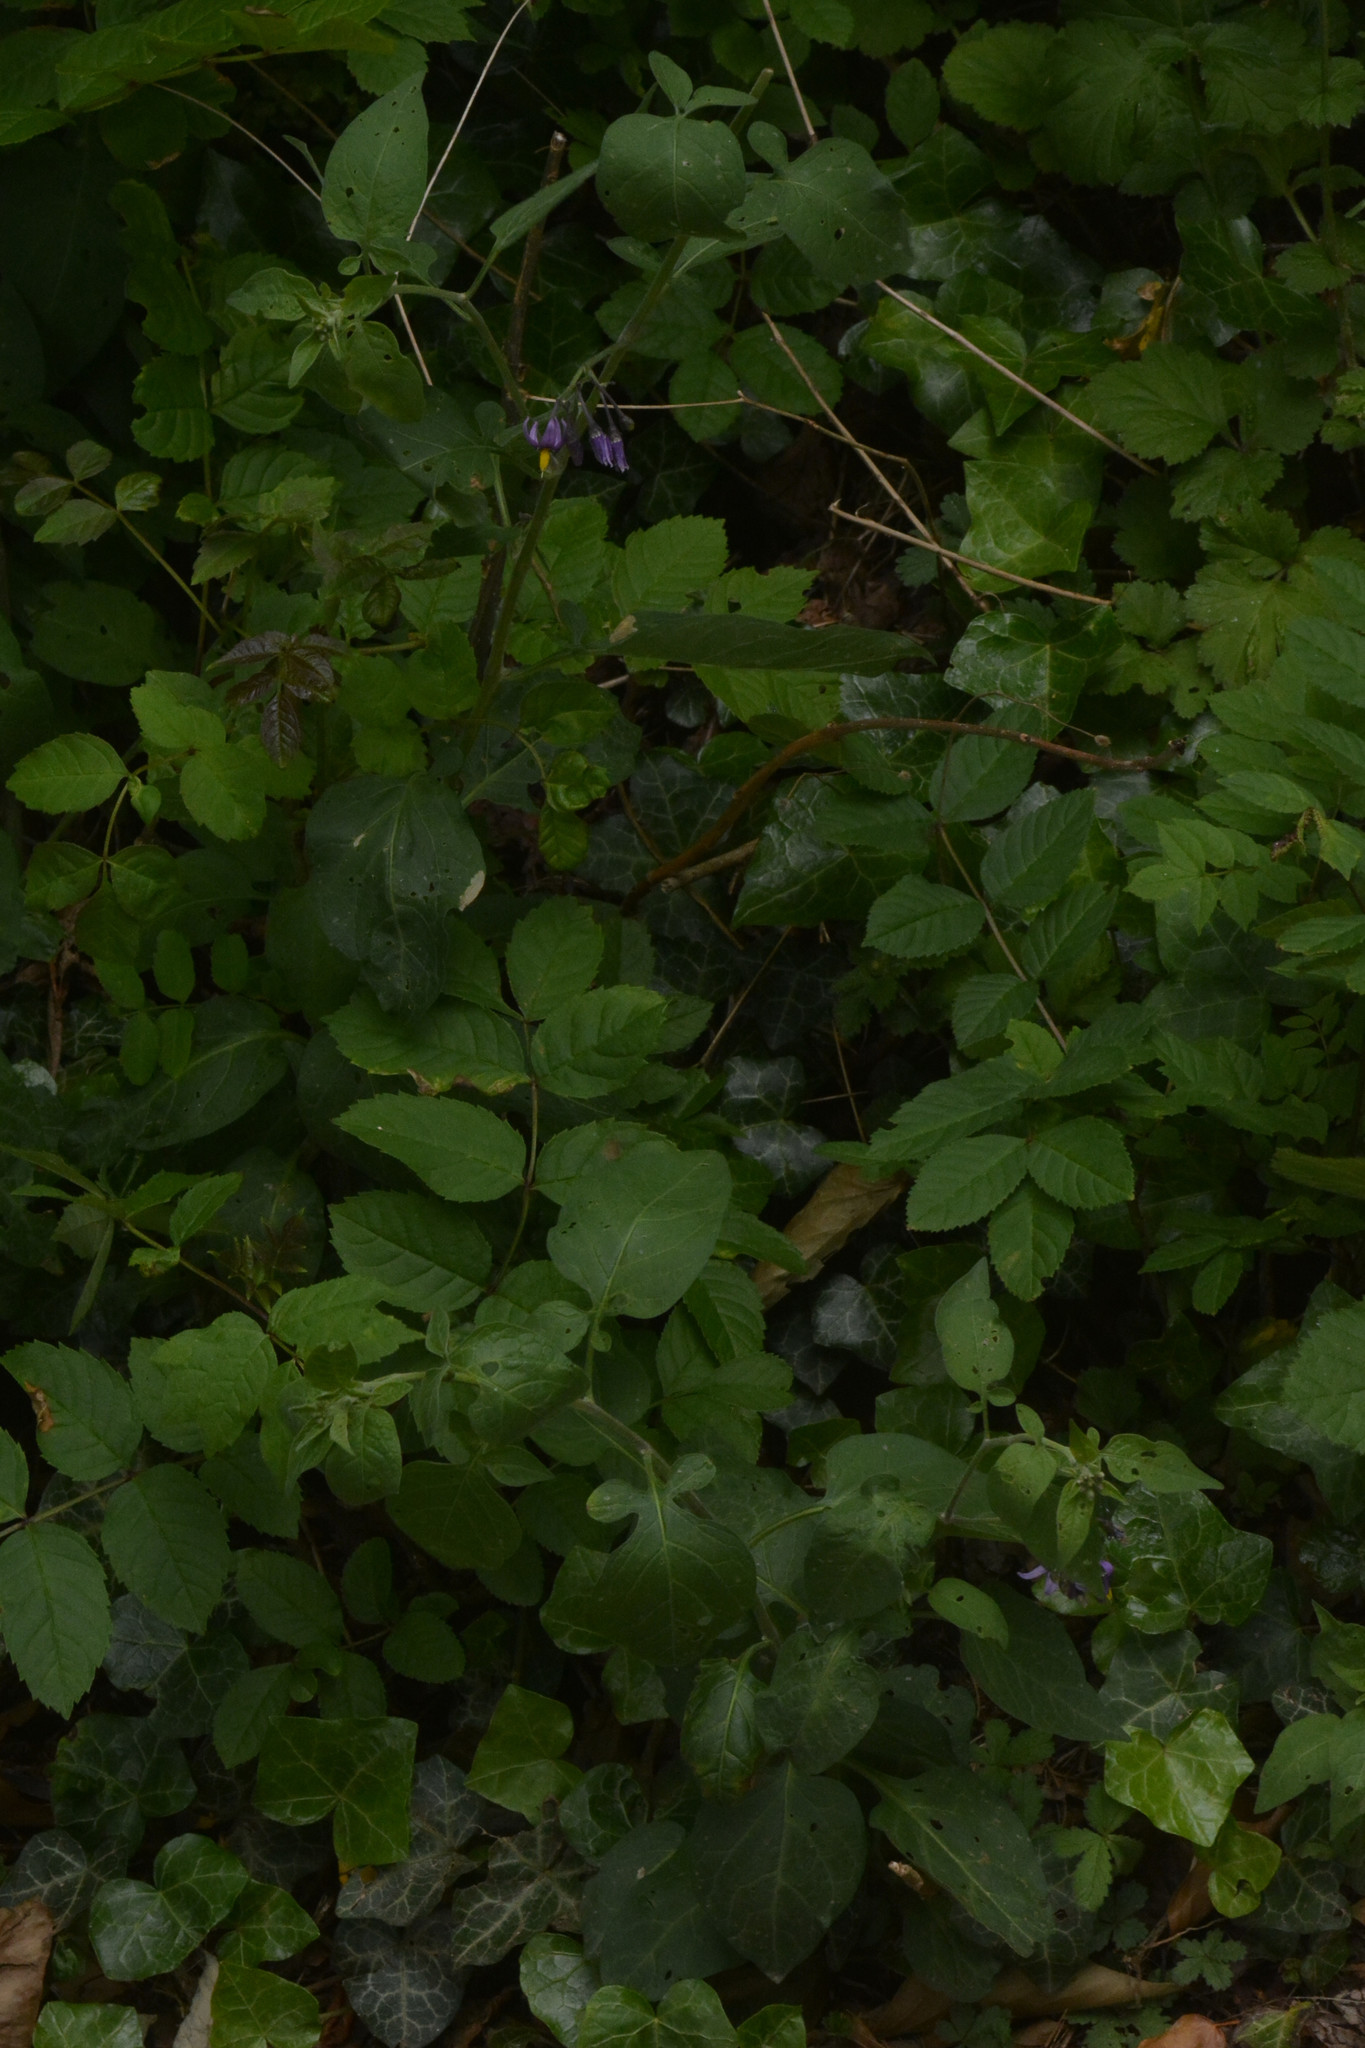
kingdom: Plantae
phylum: Tracheophyta
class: Magnoliopsida
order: Solanales
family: Solanaceae
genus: Solanum
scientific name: Solanum dulcamara
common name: Climbing nightshade
